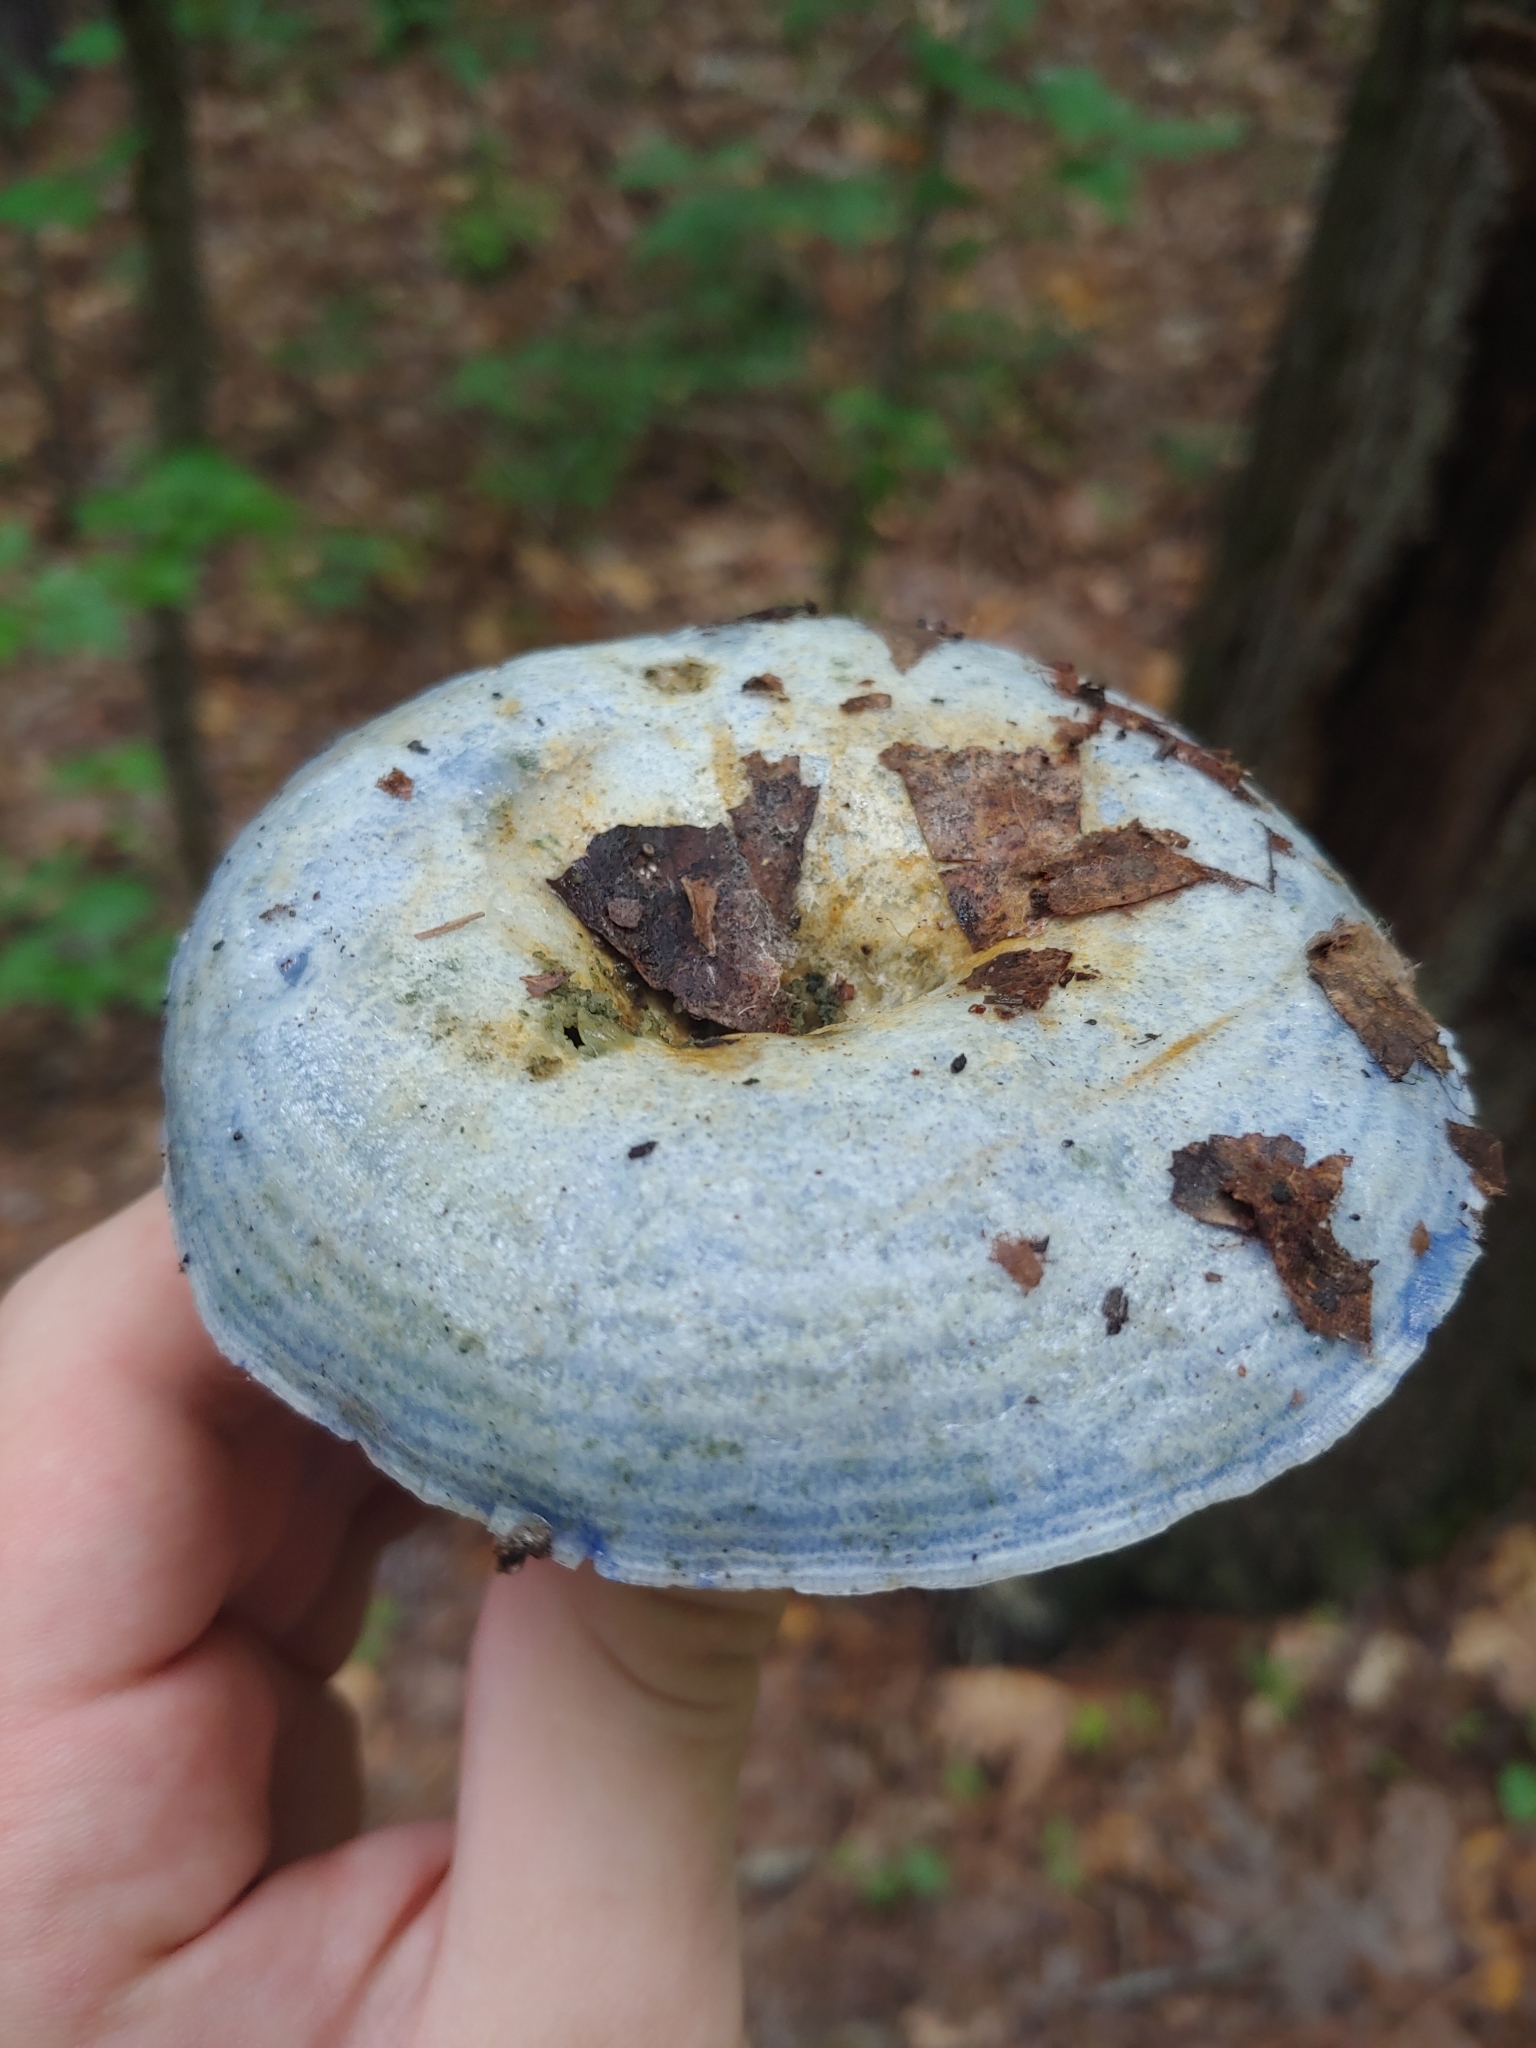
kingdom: Fungi
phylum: Basidiomycota
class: Agaricomycetes
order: Russulales
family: Russulaceae
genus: Lactarius
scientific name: Lactarius indigo
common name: Indigo milk cap
